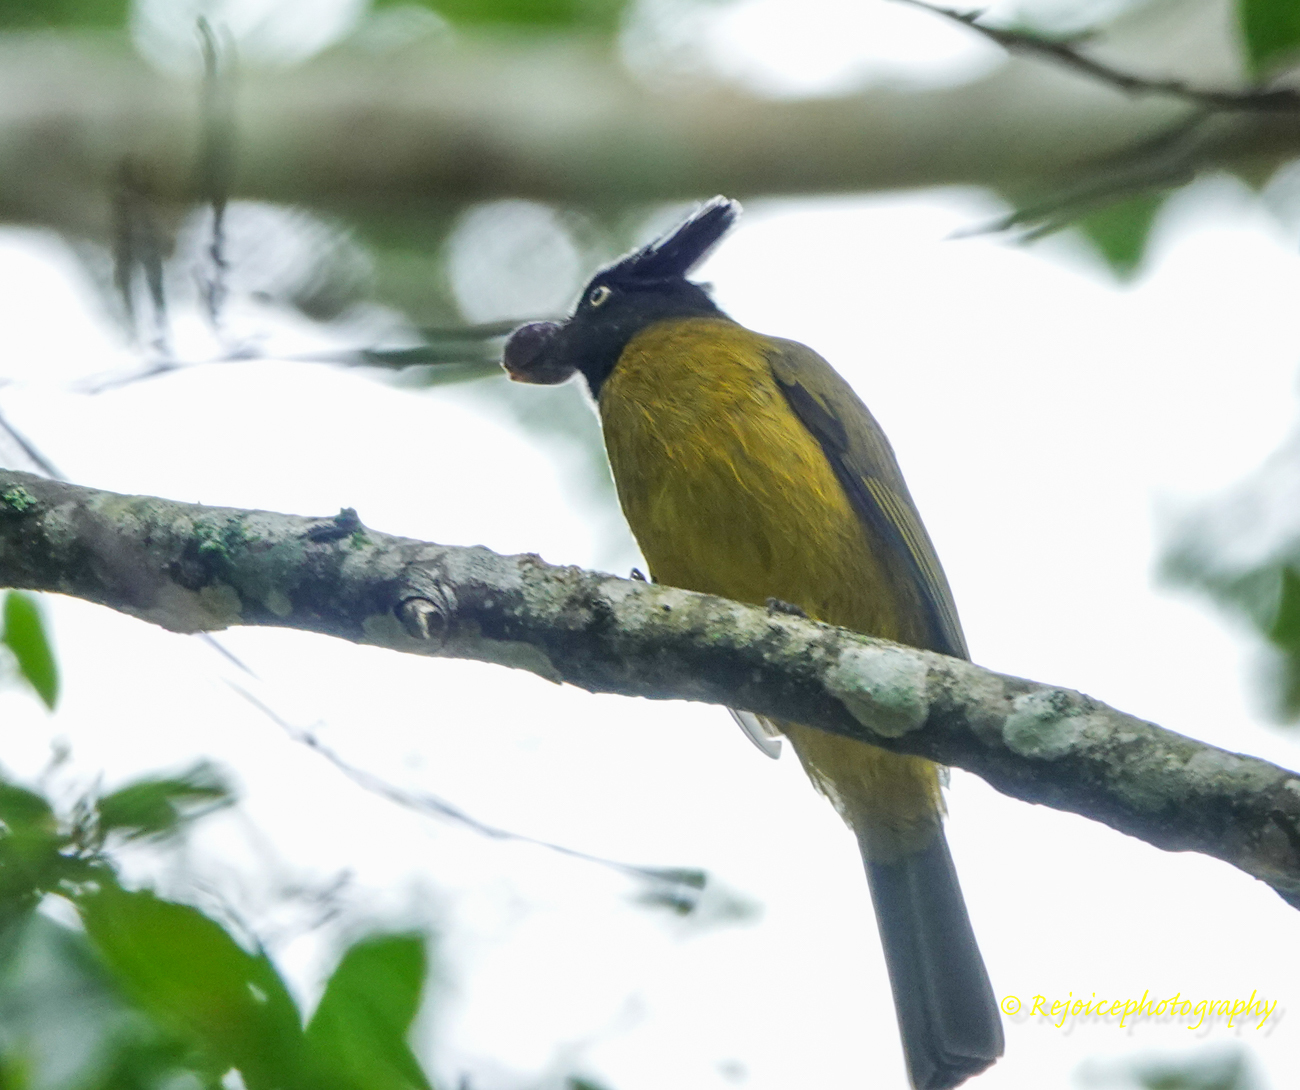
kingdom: Animalia
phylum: Chordata
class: Aves
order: Passeriformes
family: Pycnonotidae
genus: Pycnonotus
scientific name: Pycnonotus flaviventris
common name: Black-crested bulbul
